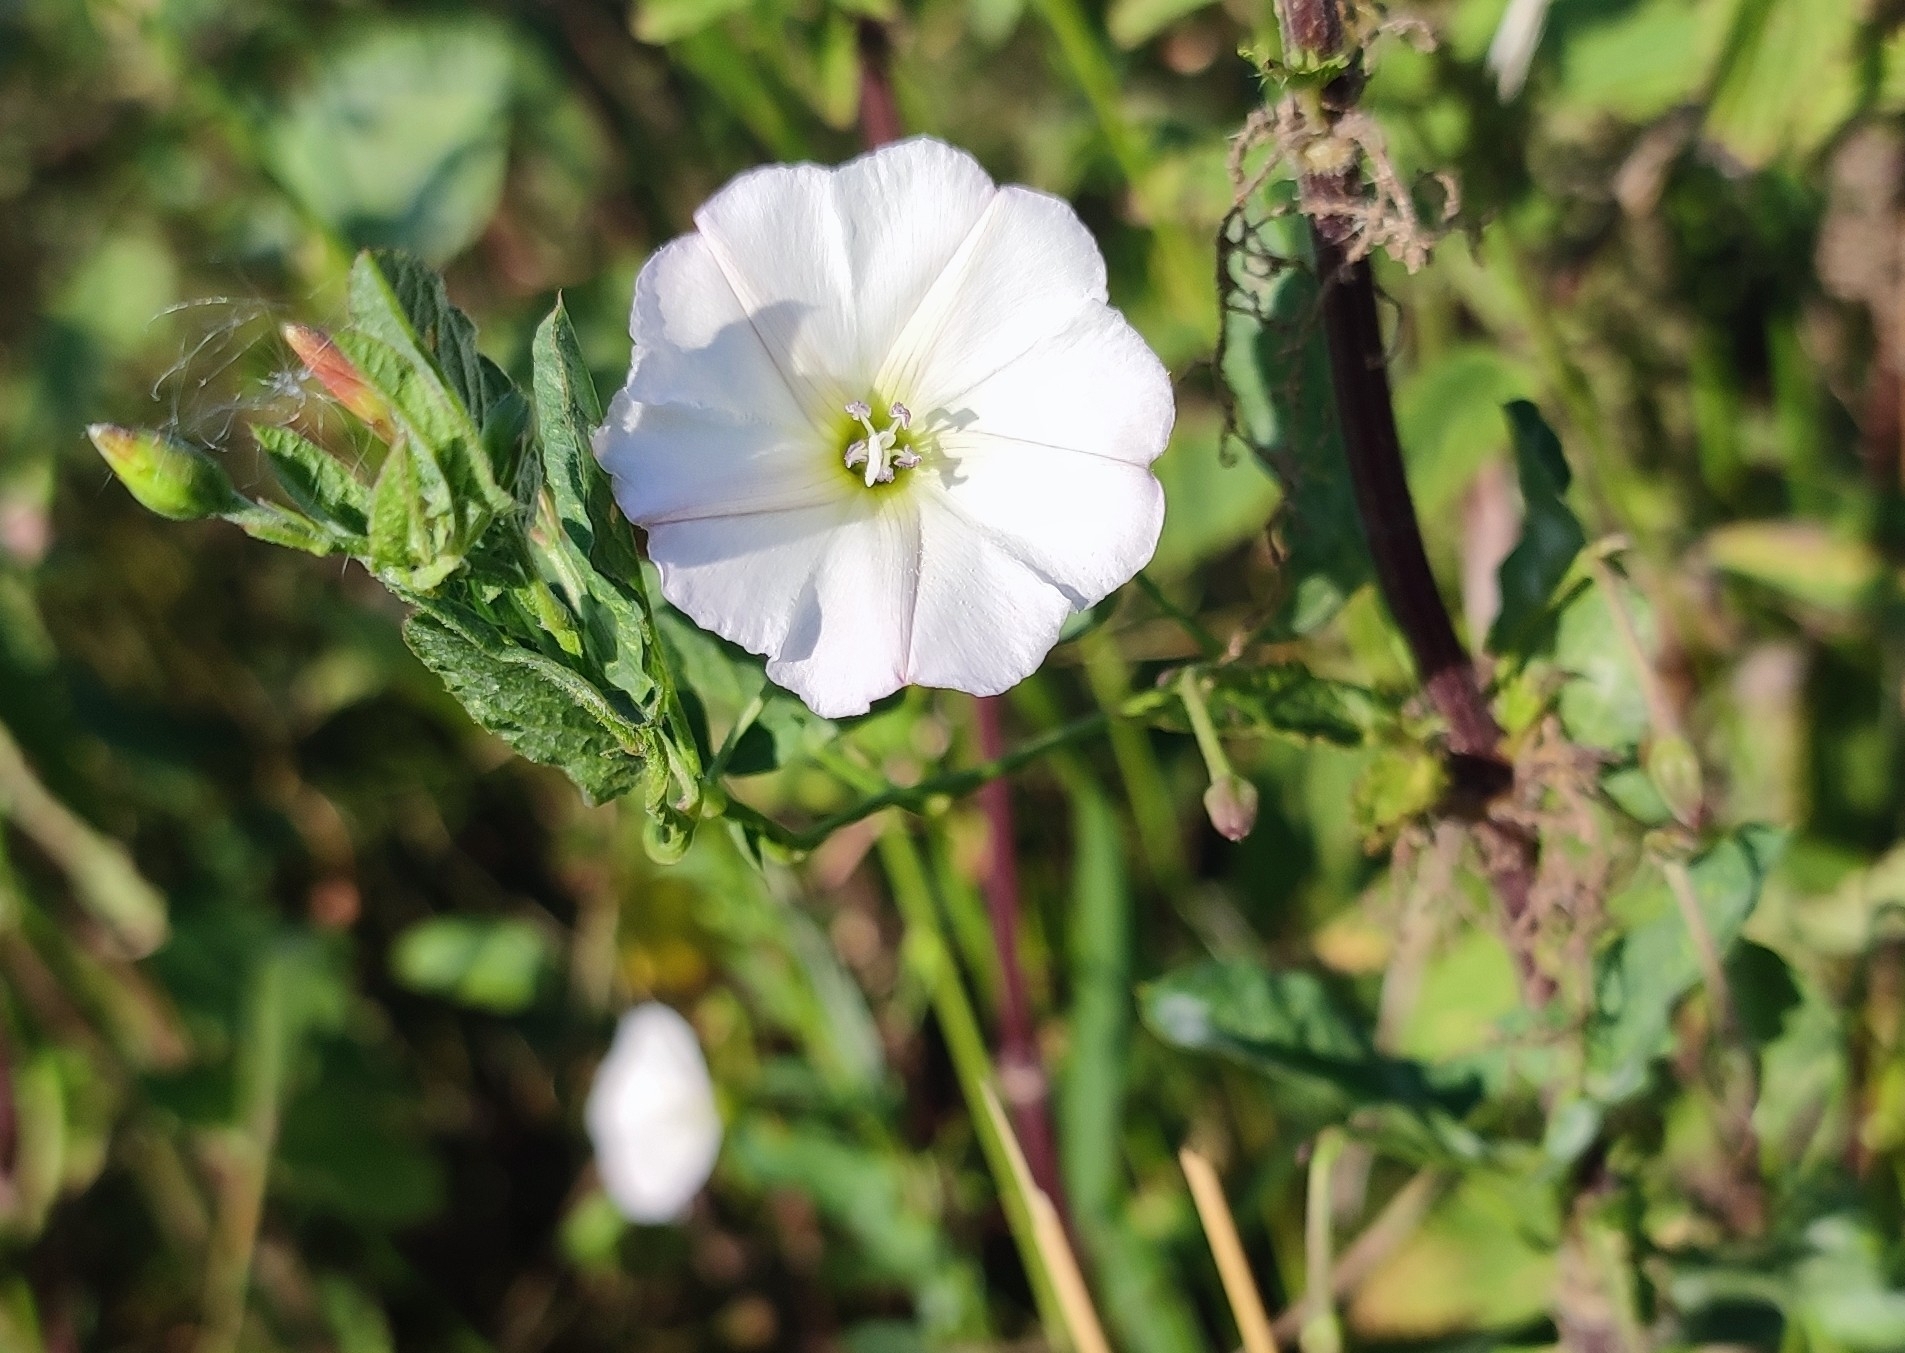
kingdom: Plantae
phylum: Tracheophyta
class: Magnoliopsida
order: Solanales
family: Convolvulaceae
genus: Convolvulus
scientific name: Convolvulus arvensis
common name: Field bindweed
